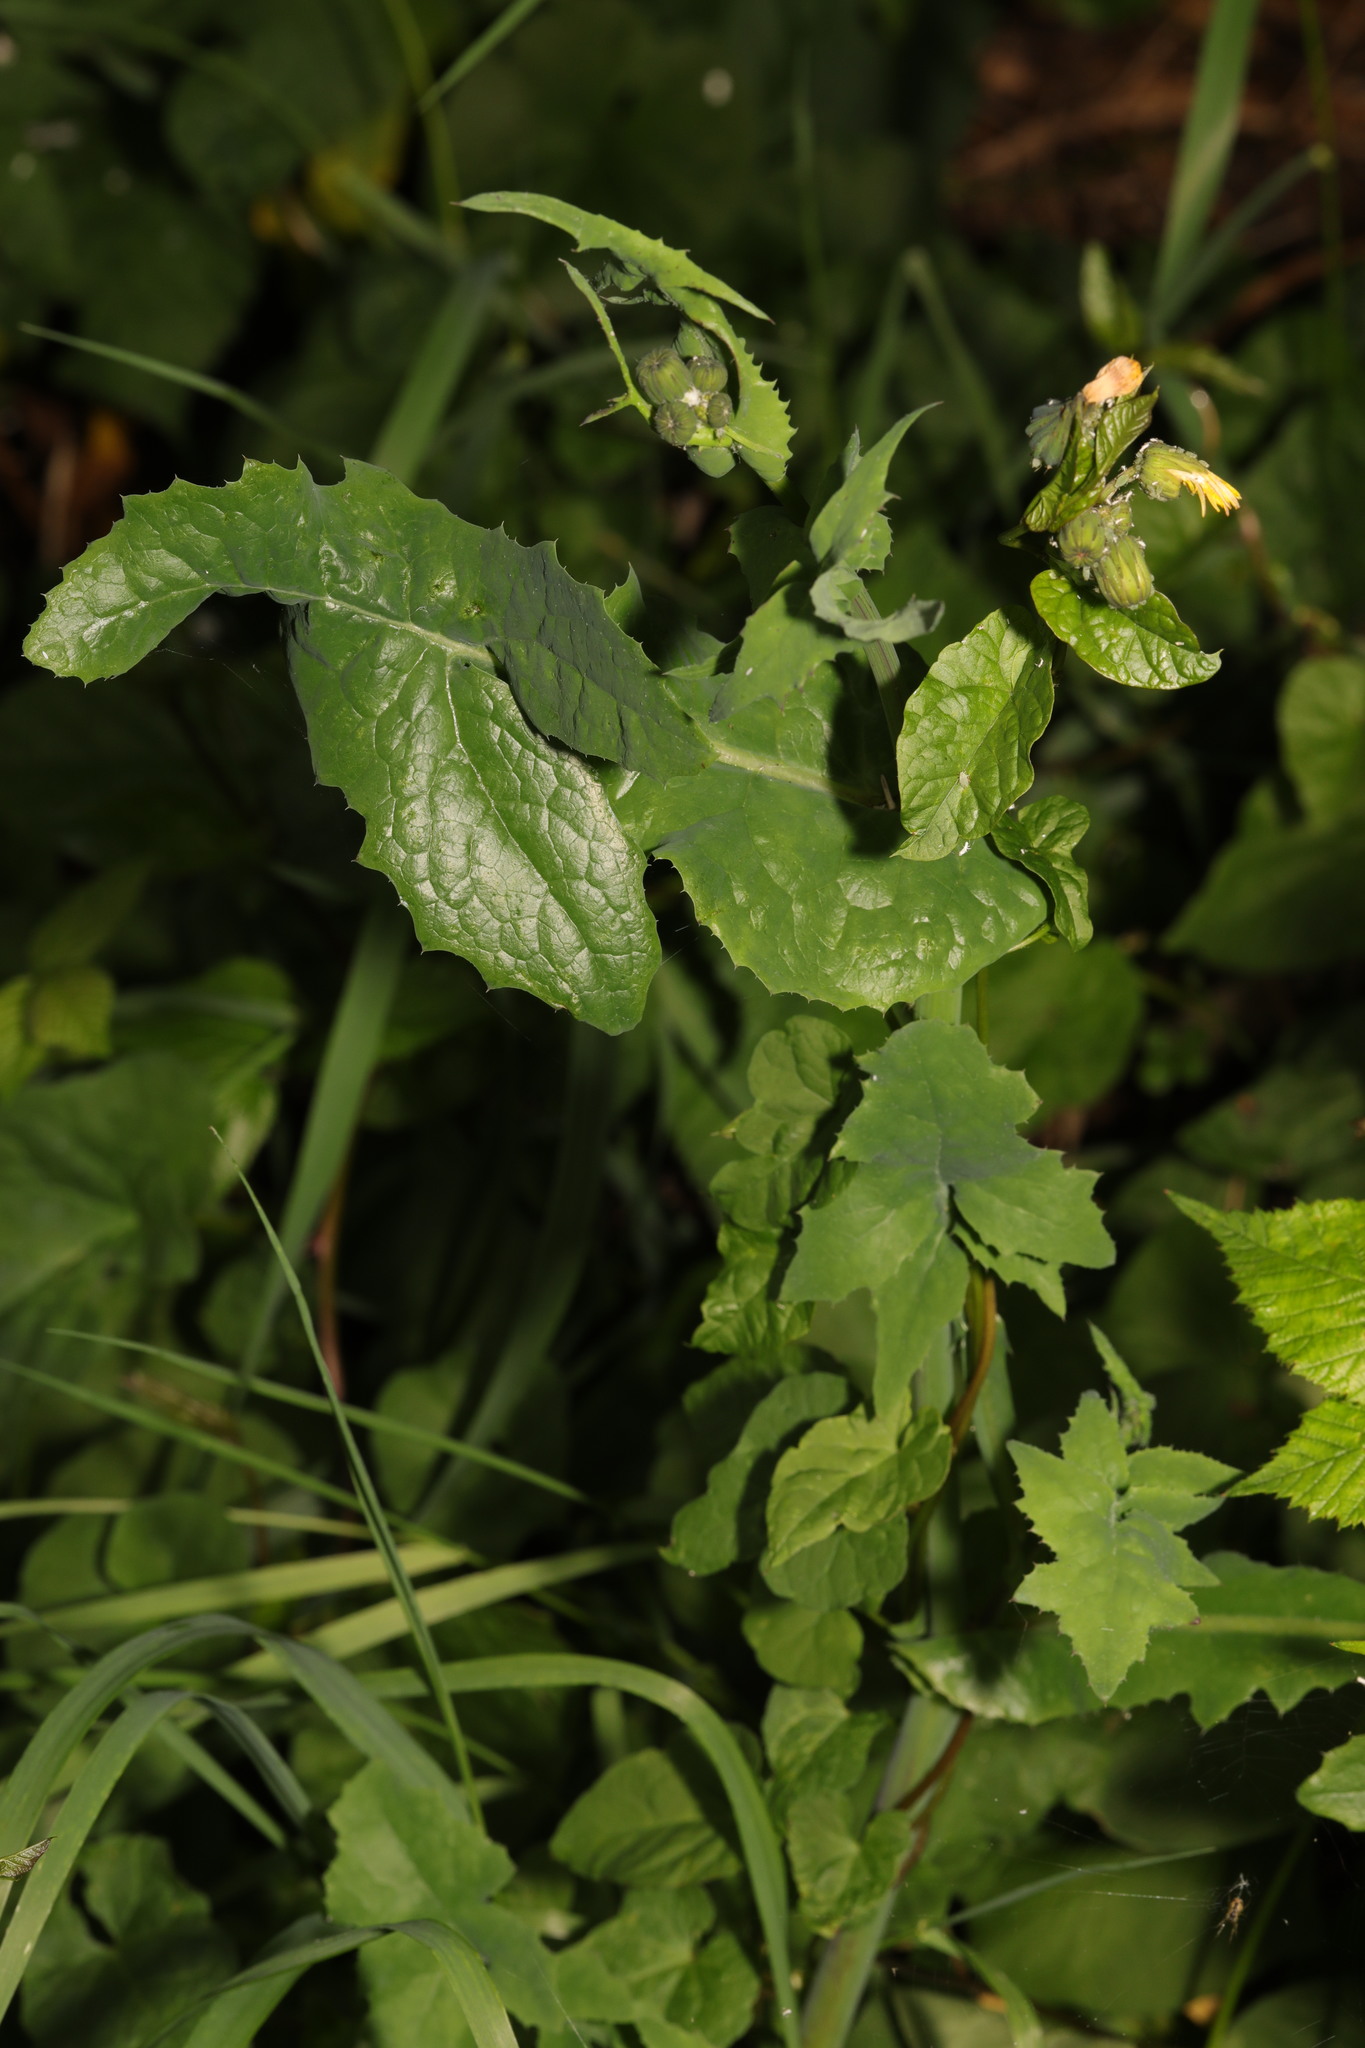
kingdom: Plantae
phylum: Tracheophyta
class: Magnoliopsida
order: Asterales
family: Asteraceae
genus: Sonchus
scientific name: Sonchus oleraceus
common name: Common sowthistle
